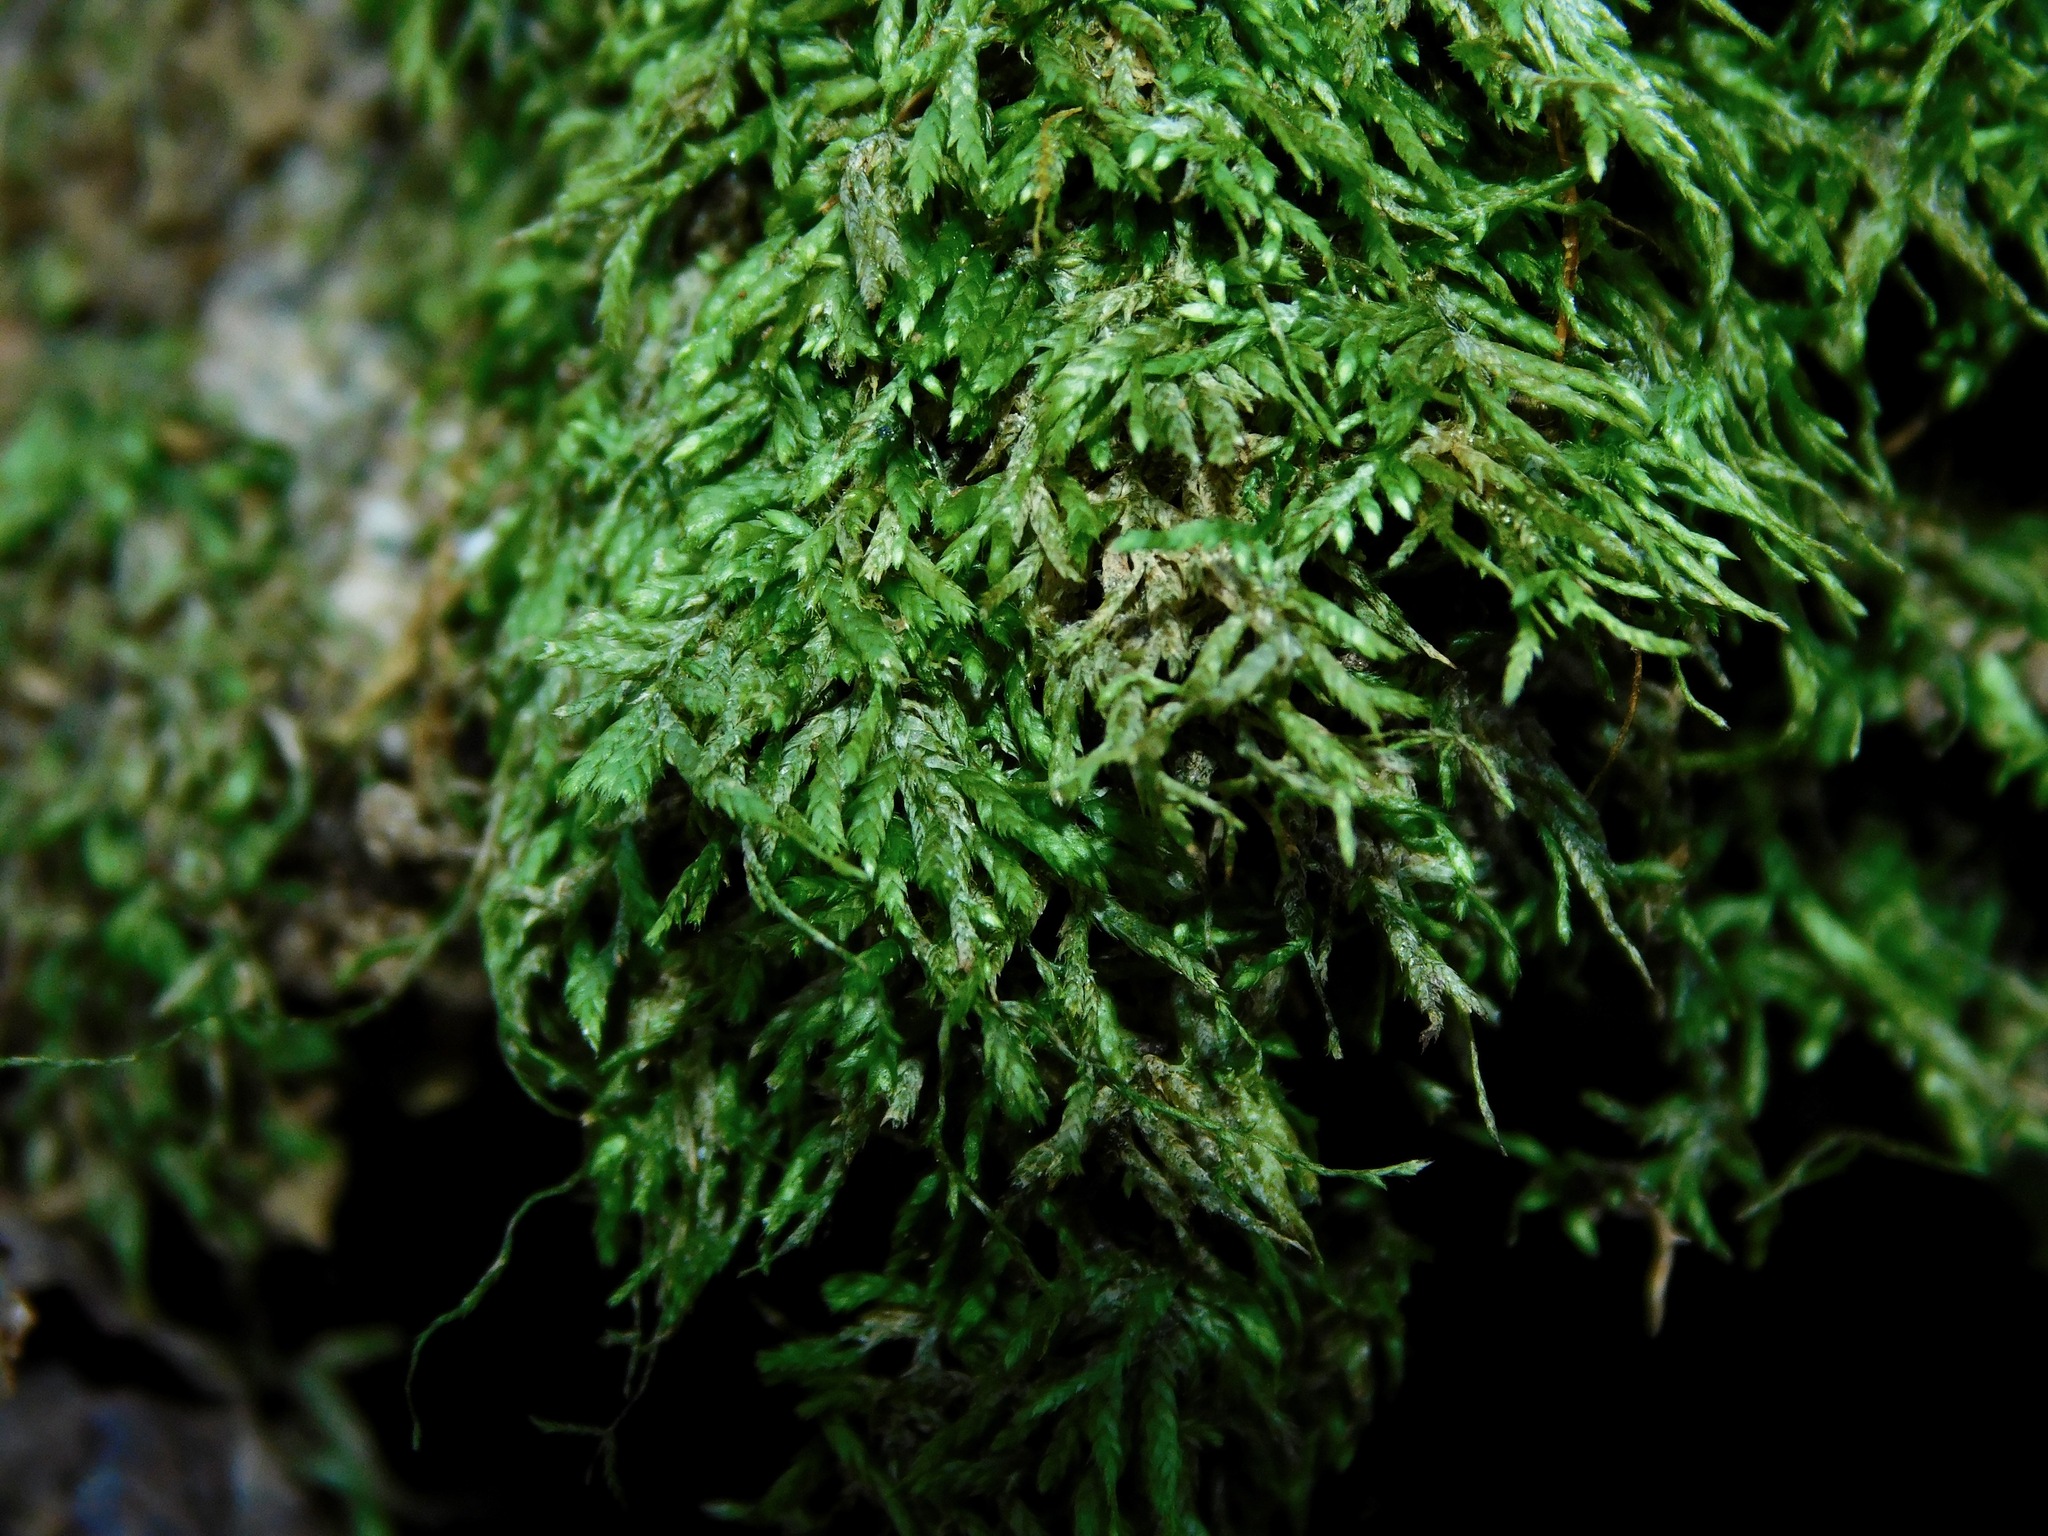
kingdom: Plantae
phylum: Bryophyta
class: Bryopsida
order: Hypnales
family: Taxiphyllaceae
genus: Schwetschkeopsis
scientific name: Schwetschkeopsis fabronia
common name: Rapunzel moss
